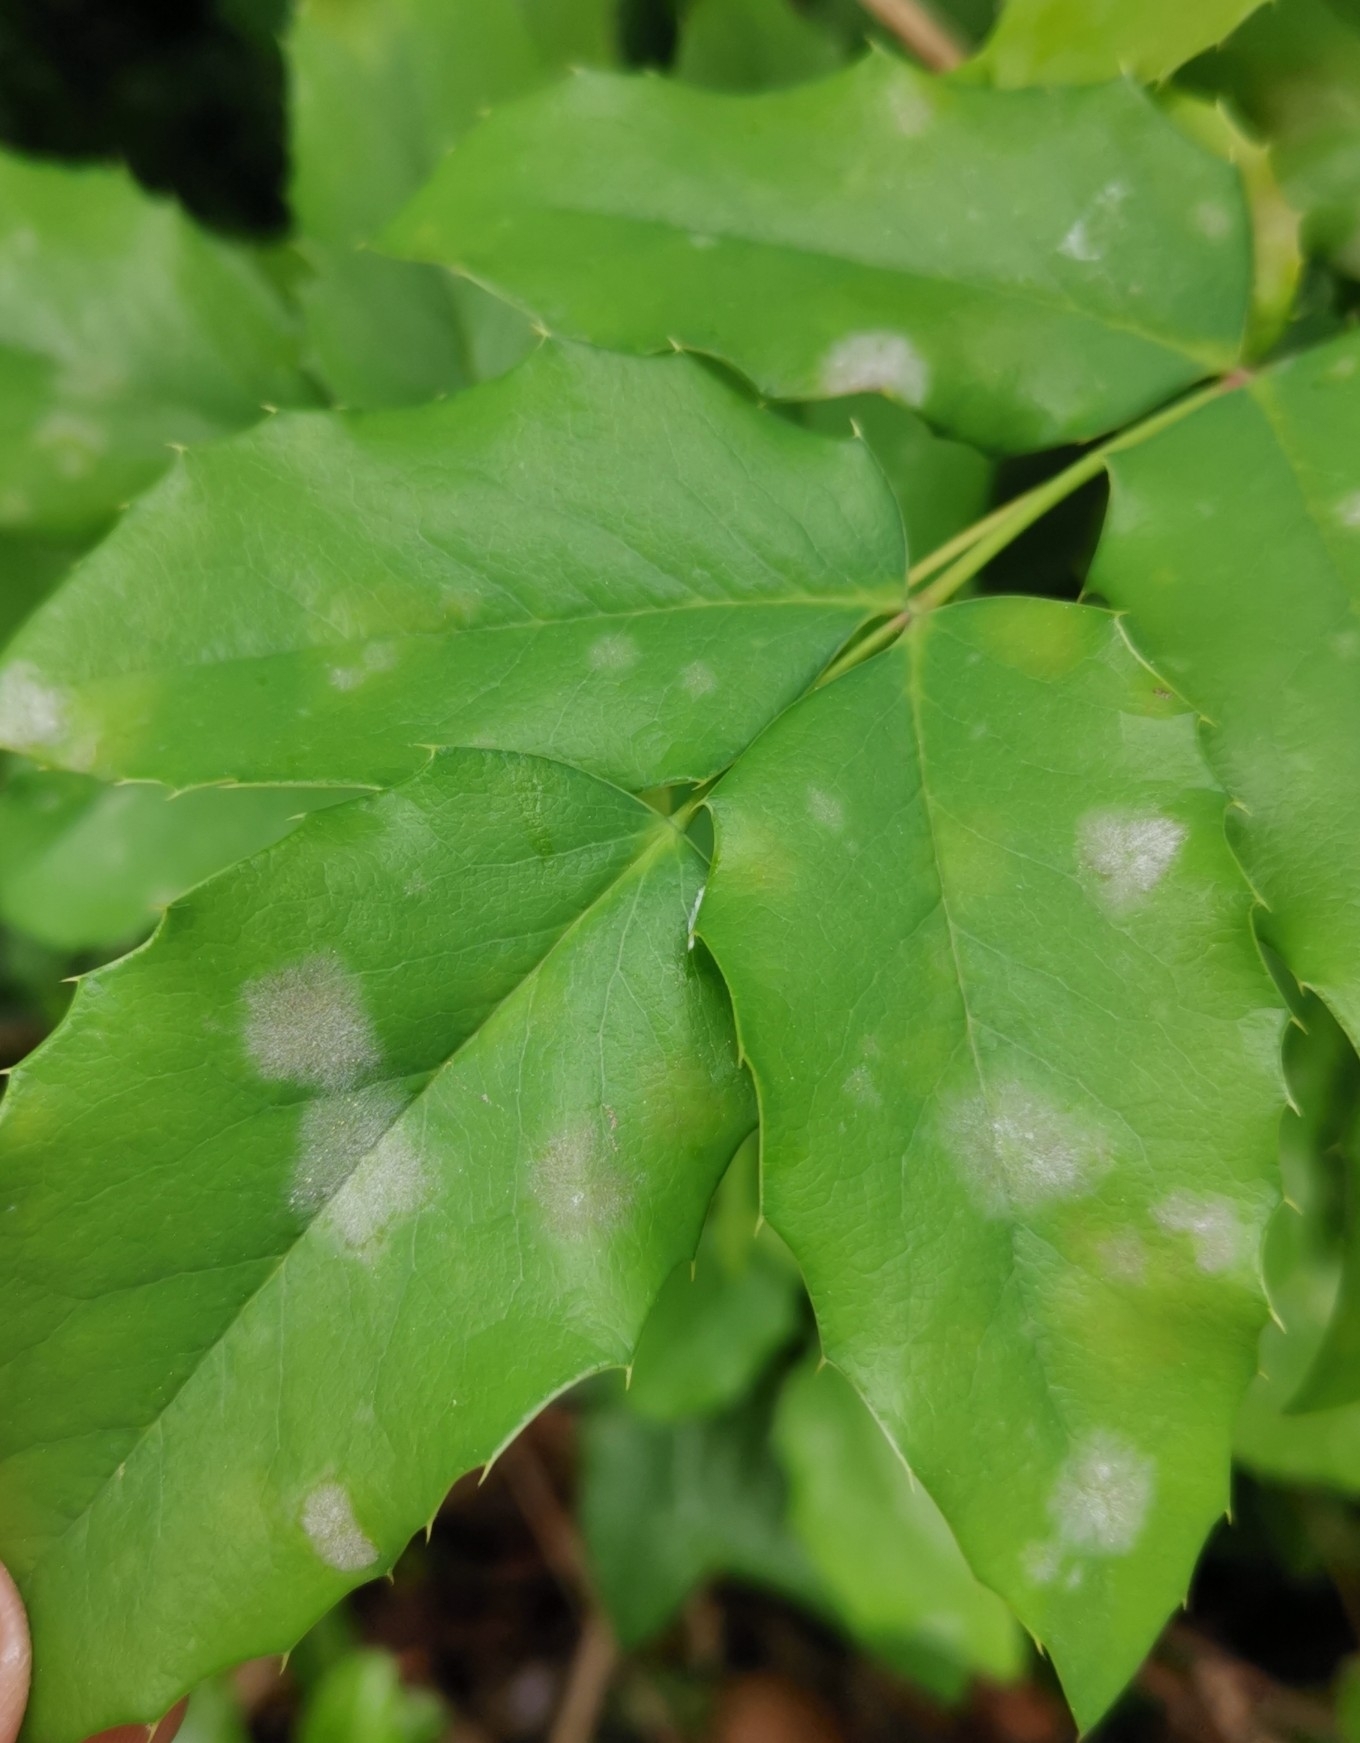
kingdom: Fungi
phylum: Ascomycota
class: Leotiomycetes
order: Helotiales
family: Erysiphaceae
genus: Erysiphe
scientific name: Erysiphe berberidis
